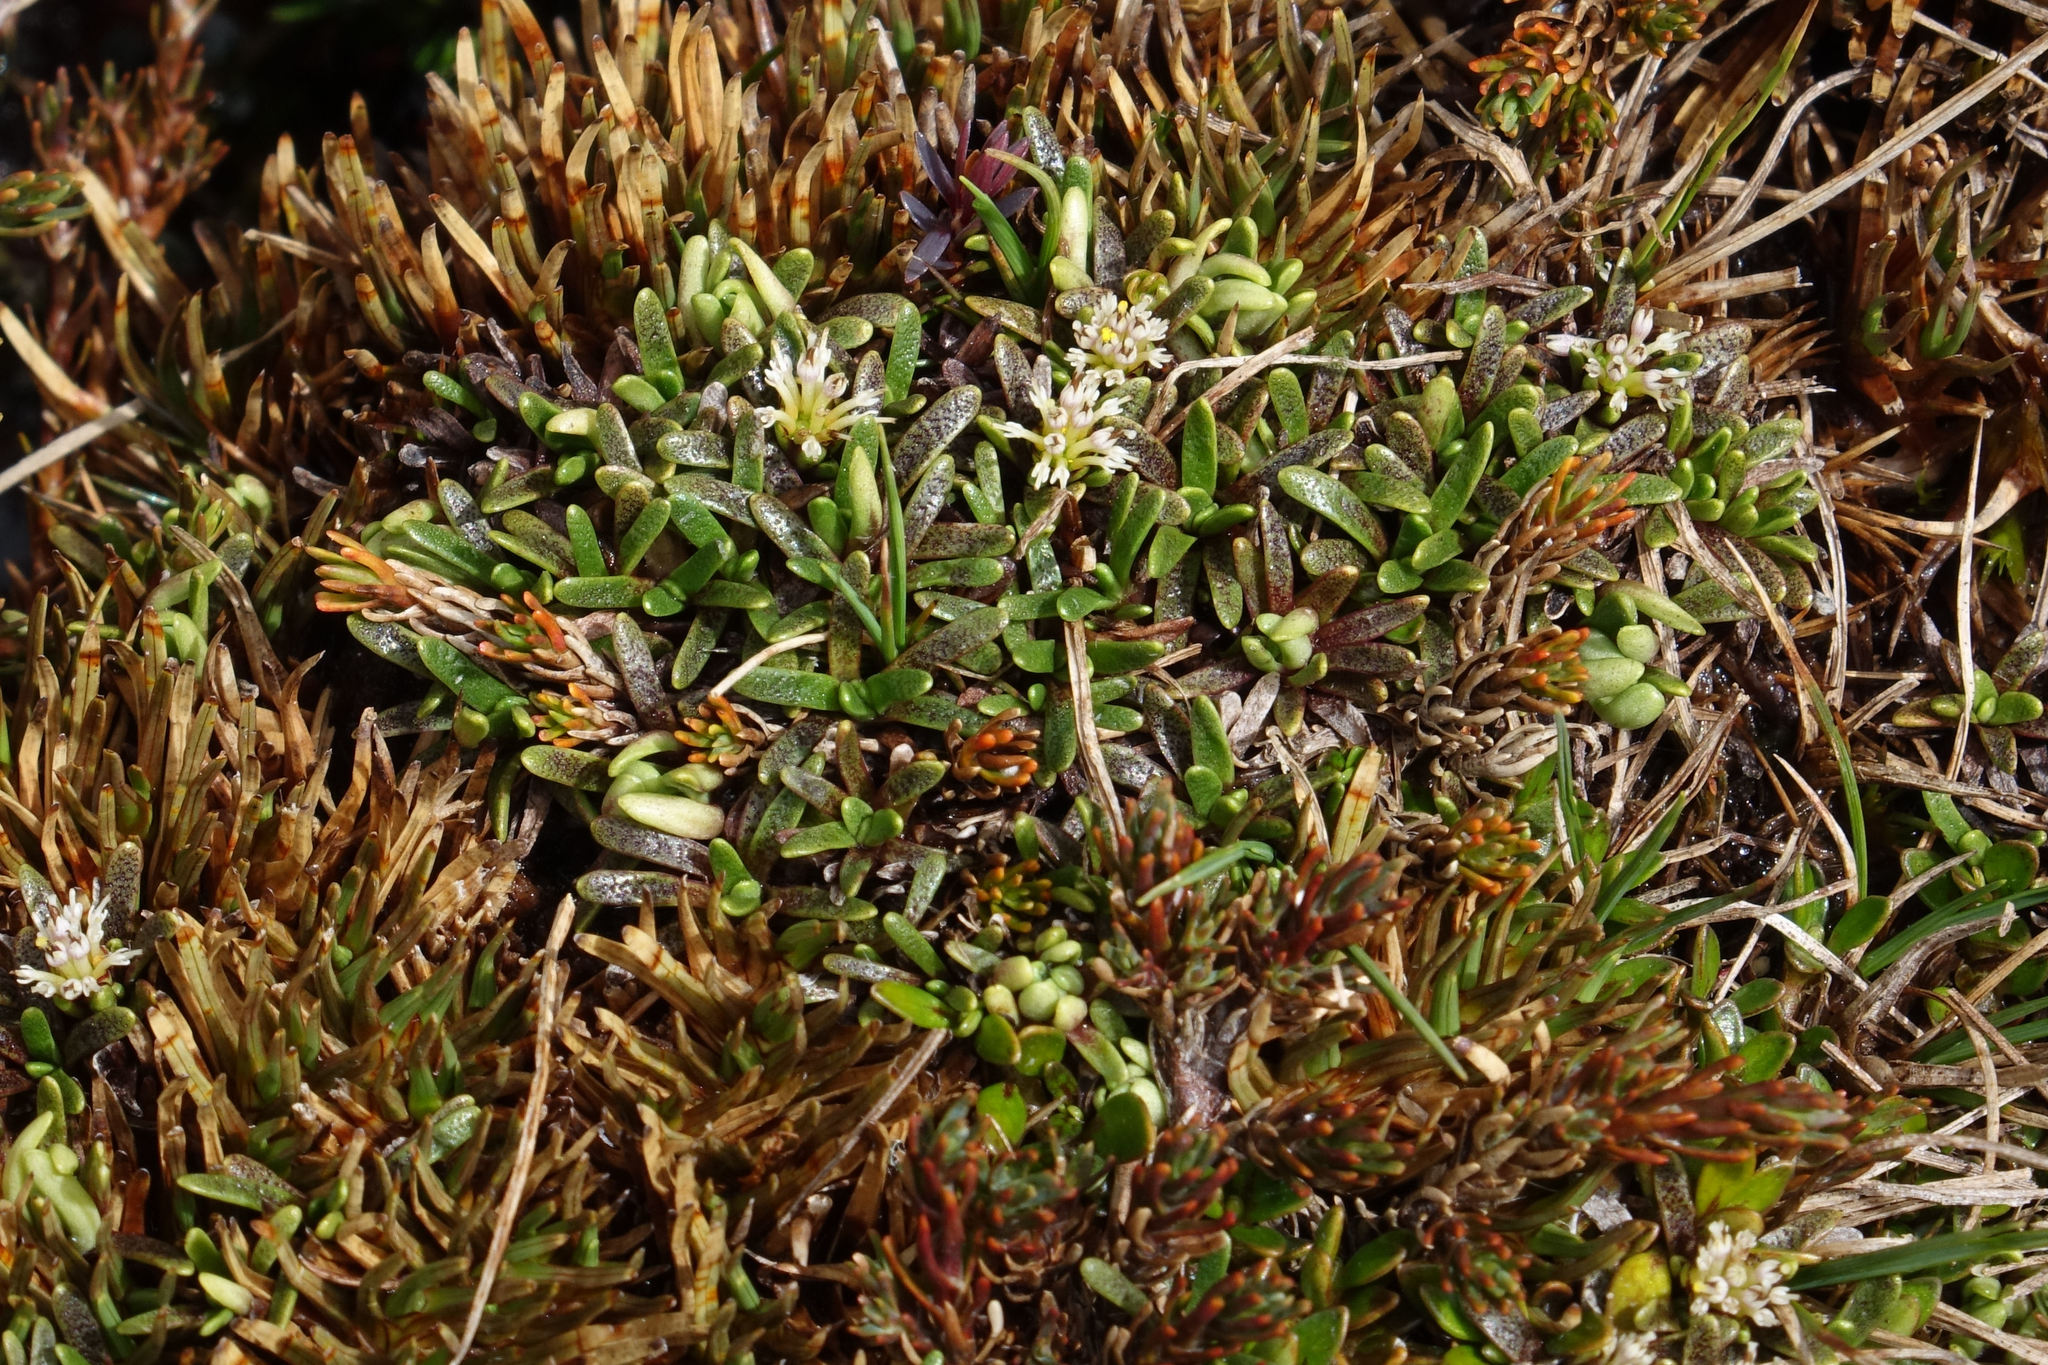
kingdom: Plantae
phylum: Tracheophyta
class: Magnoliopsida
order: Asterales
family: Asteraceae
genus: Abrotanella
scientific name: Abrotanella caespitosa
